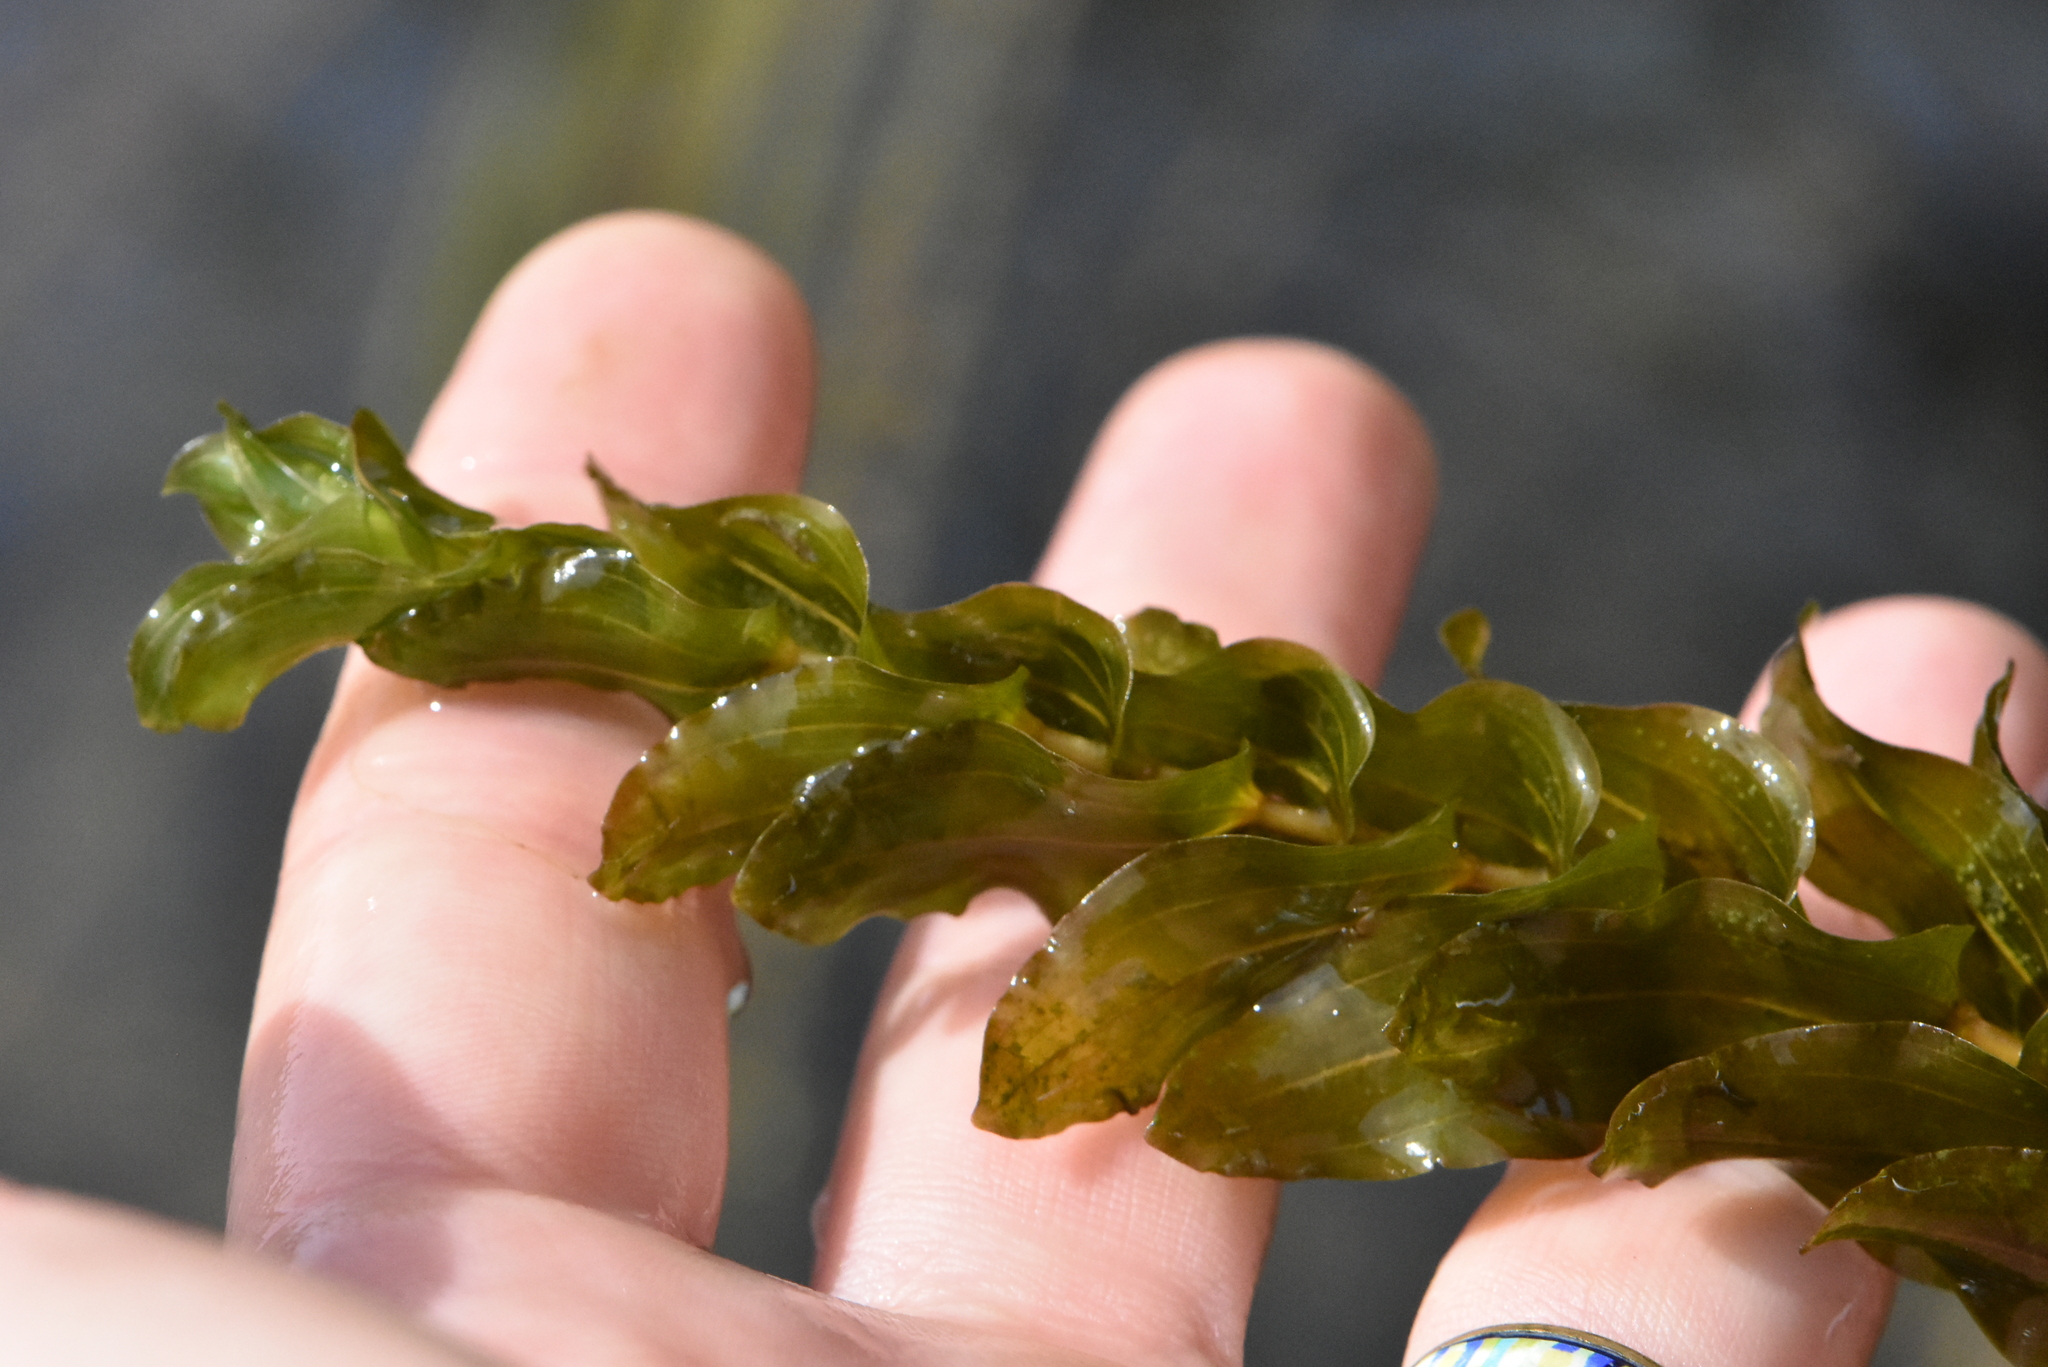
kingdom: Plantae
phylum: Tracheophyta
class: Liliopsida
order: Alismatales
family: Potamogetonaceae
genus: Potamogeton
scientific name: Potamogeton perfoliatus
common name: Perfoliate pondweed
